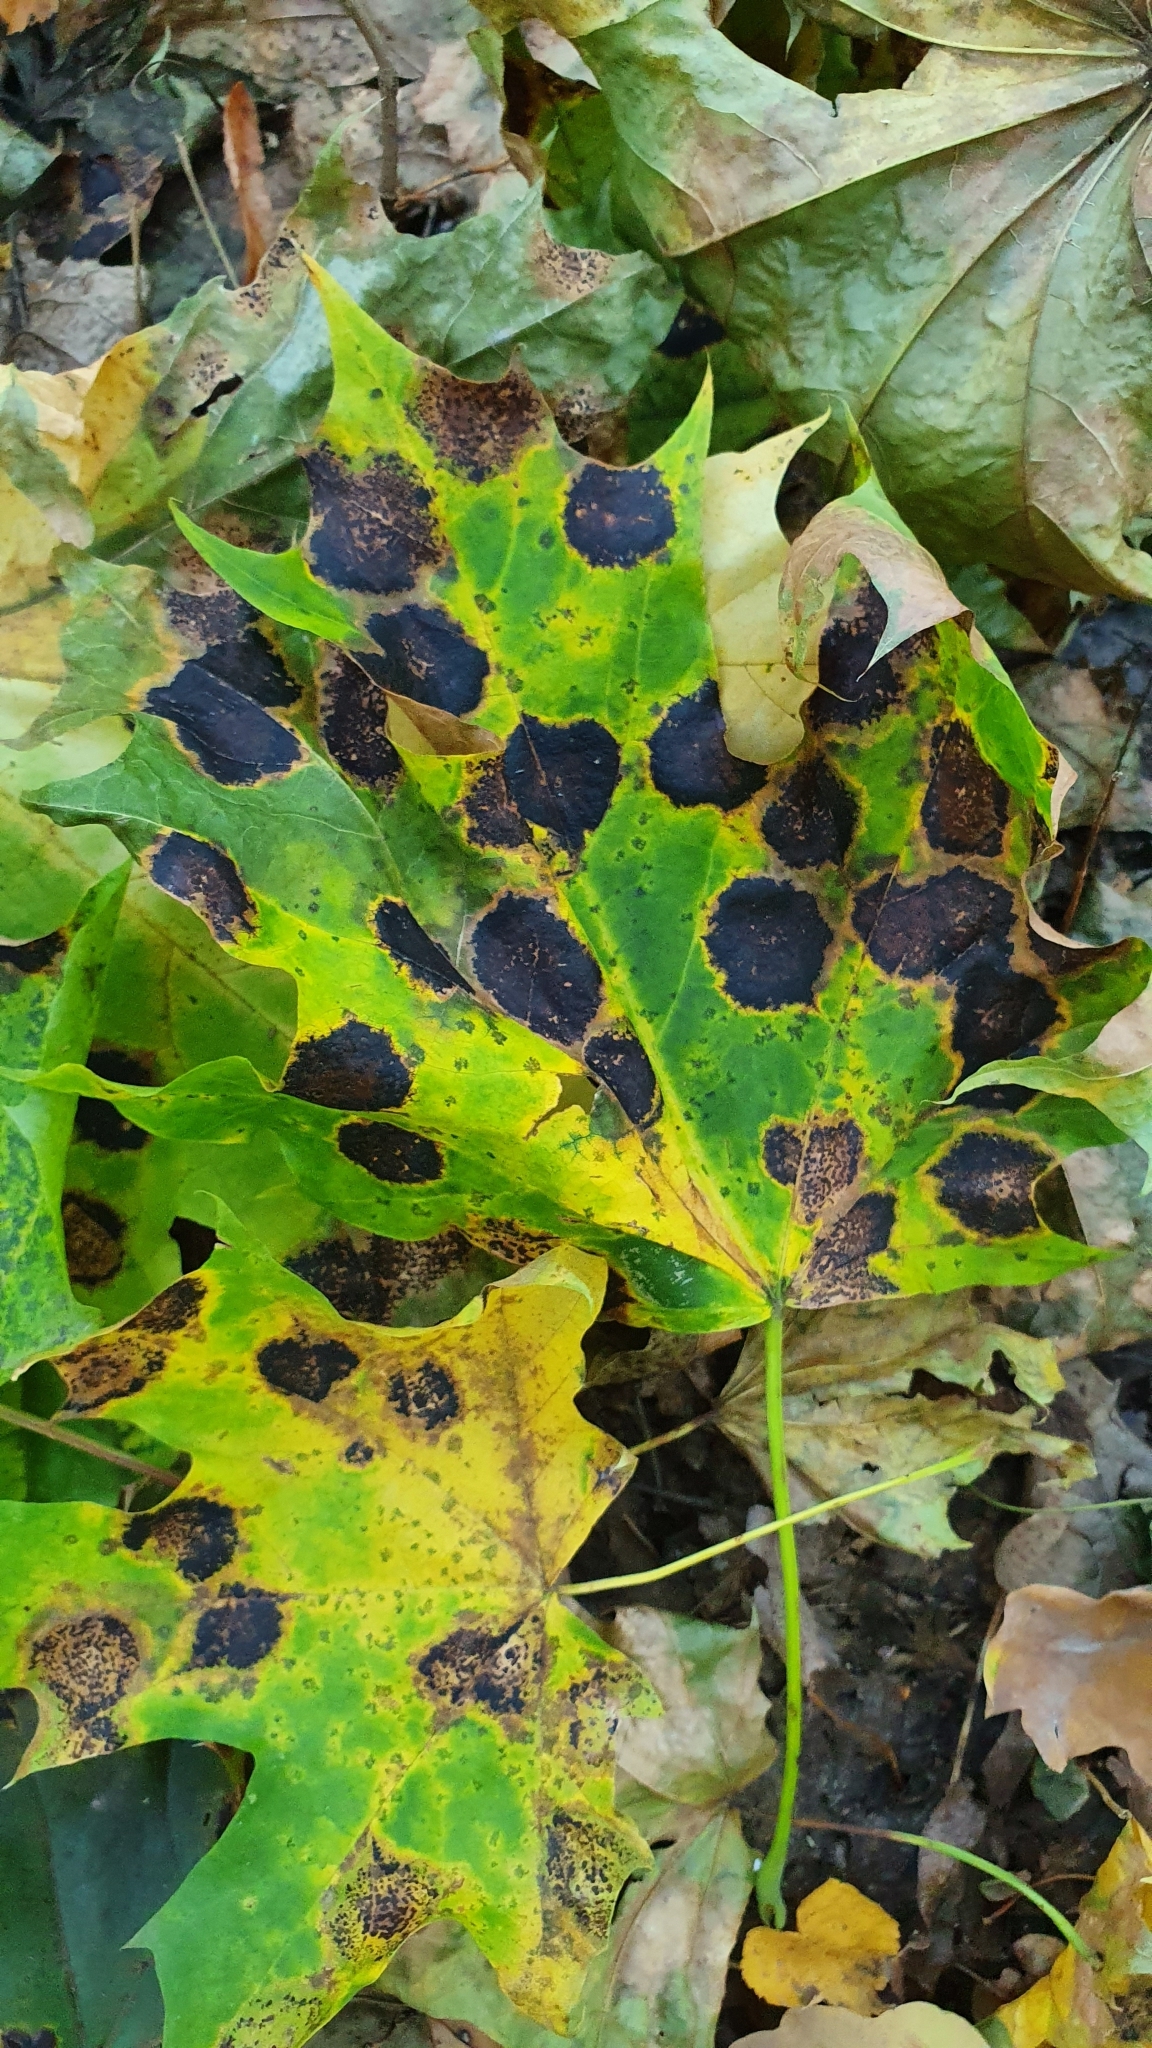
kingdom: Fungi
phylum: Ascomycota
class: Leotiomycetes
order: Rhytismatales
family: Rhytismataceae
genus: Rhytisma
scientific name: Rhytisma acerinum
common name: European tar spot
